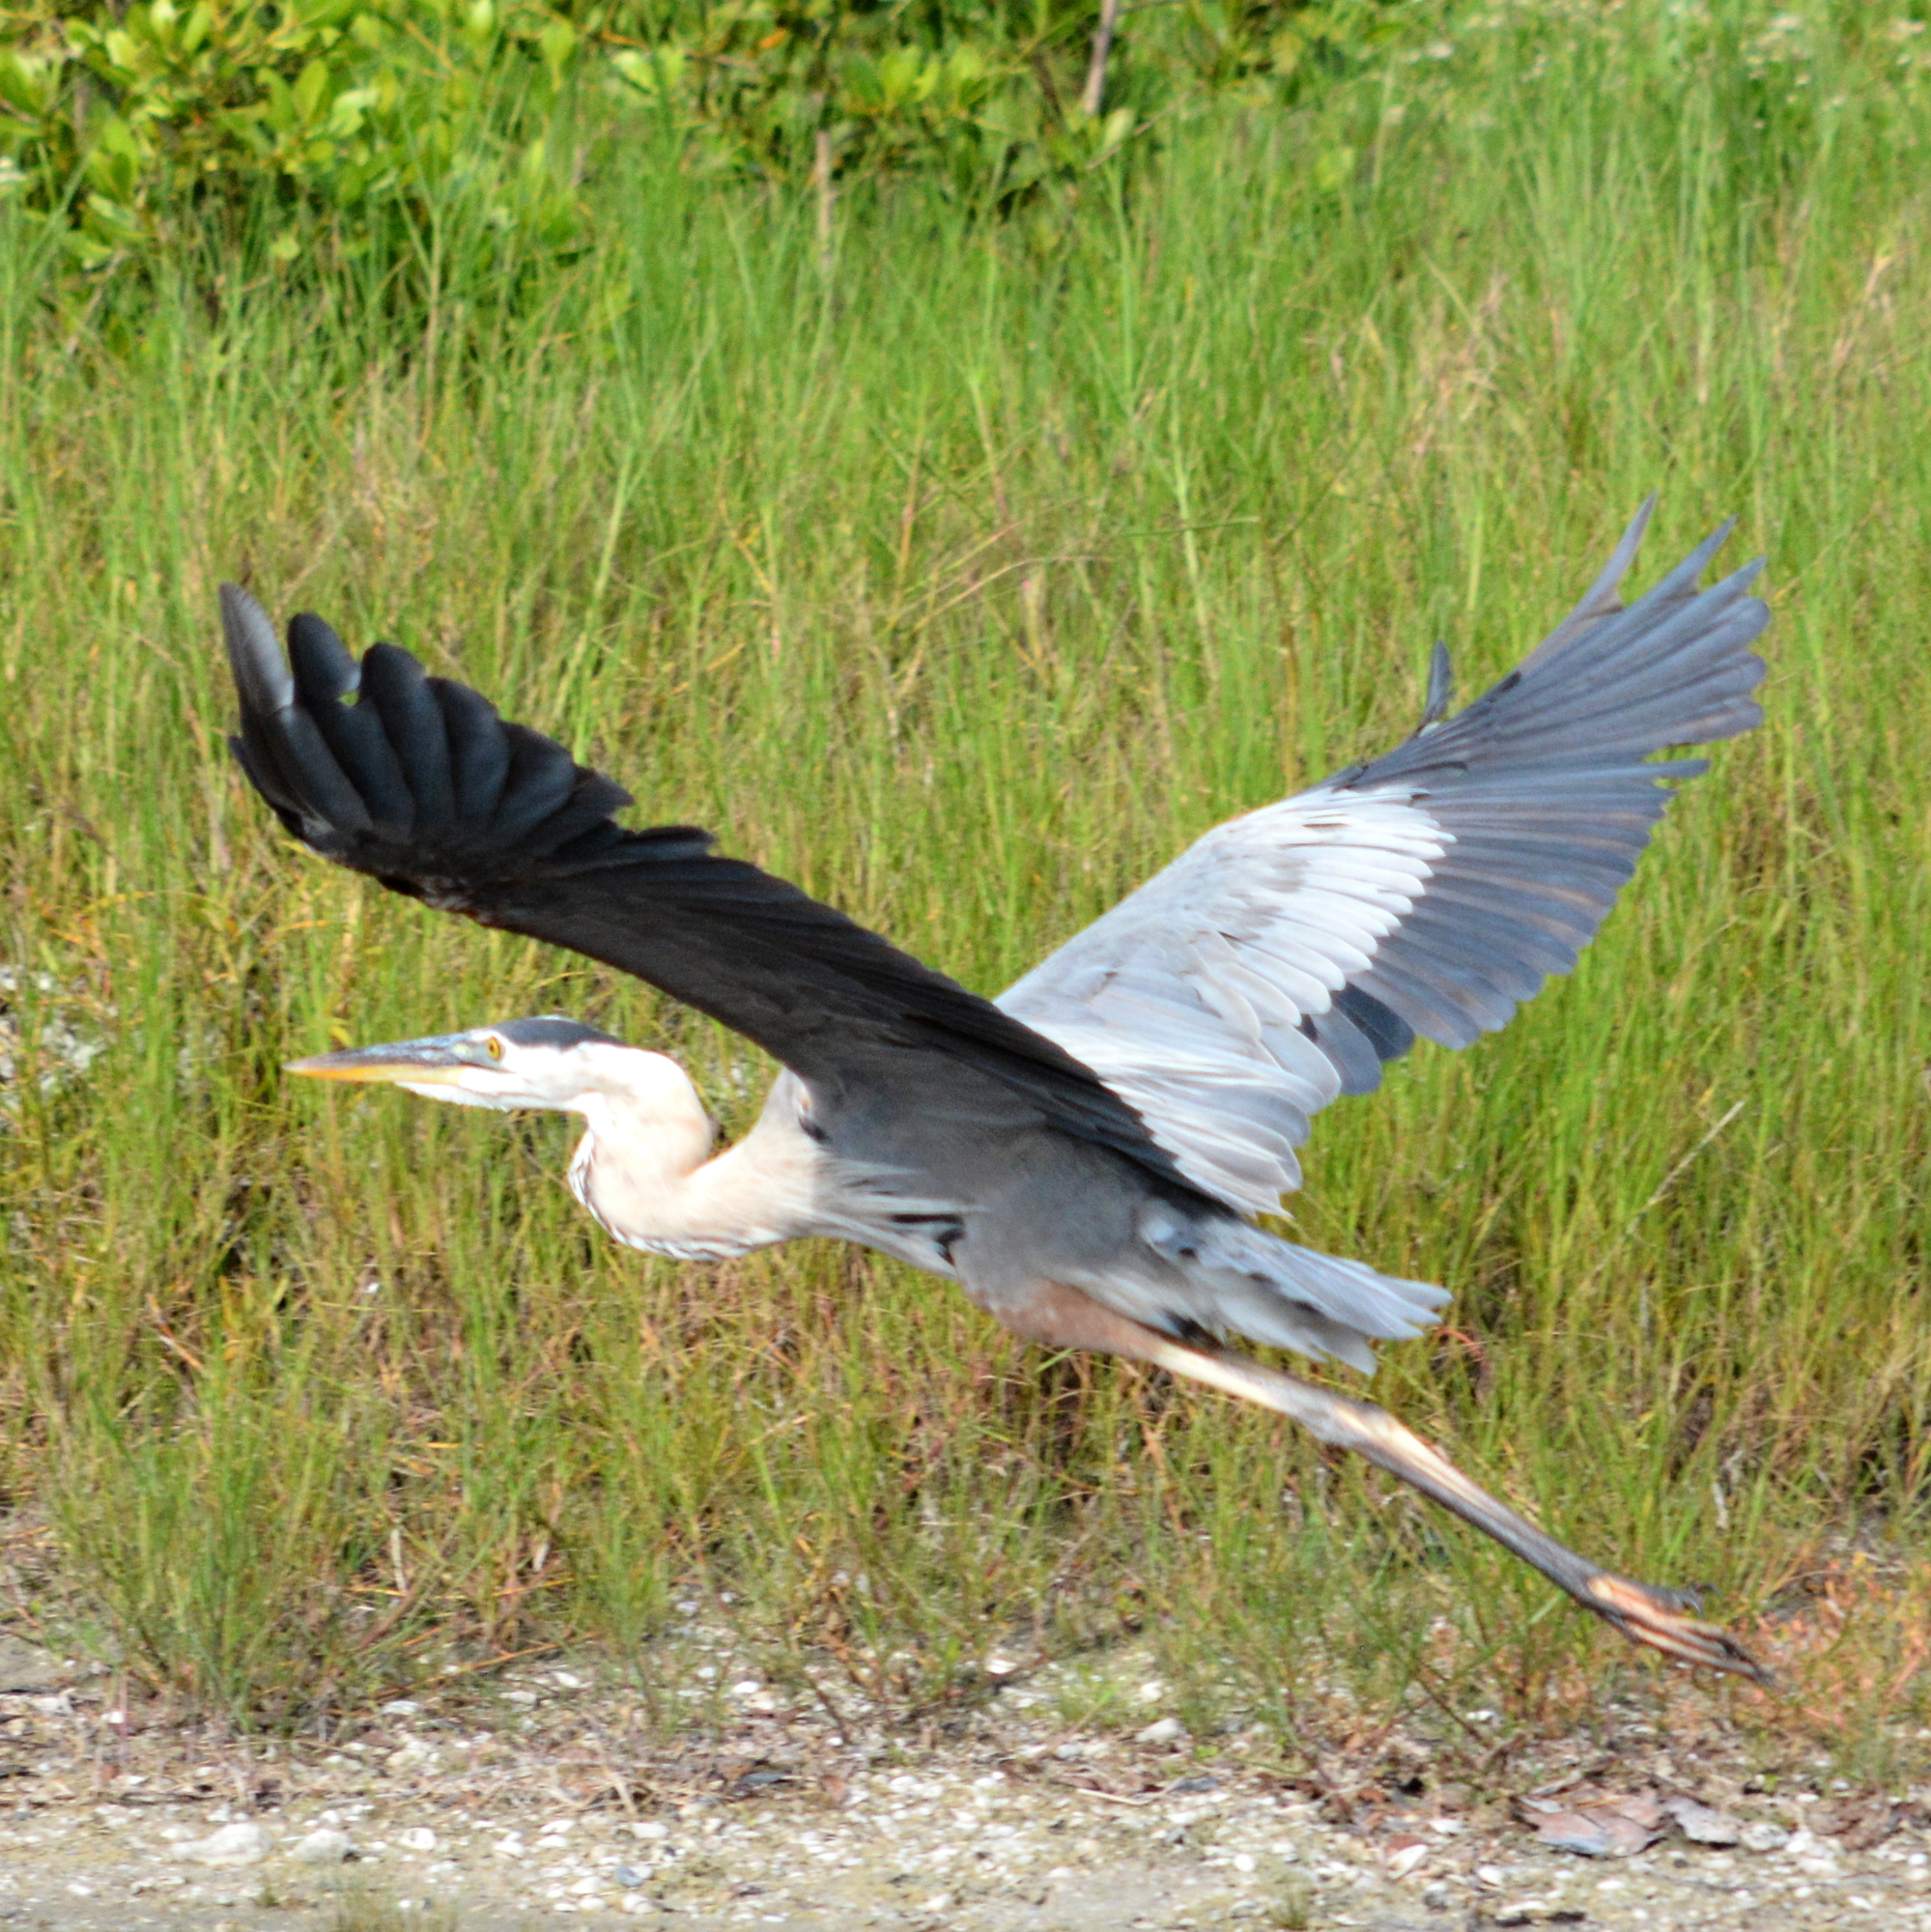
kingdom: Animalia
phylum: Chordata
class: Aves
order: Pelecaniformes
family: Ardeidae
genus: Ardea
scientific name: Ardea herodias
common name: Great blue heron
